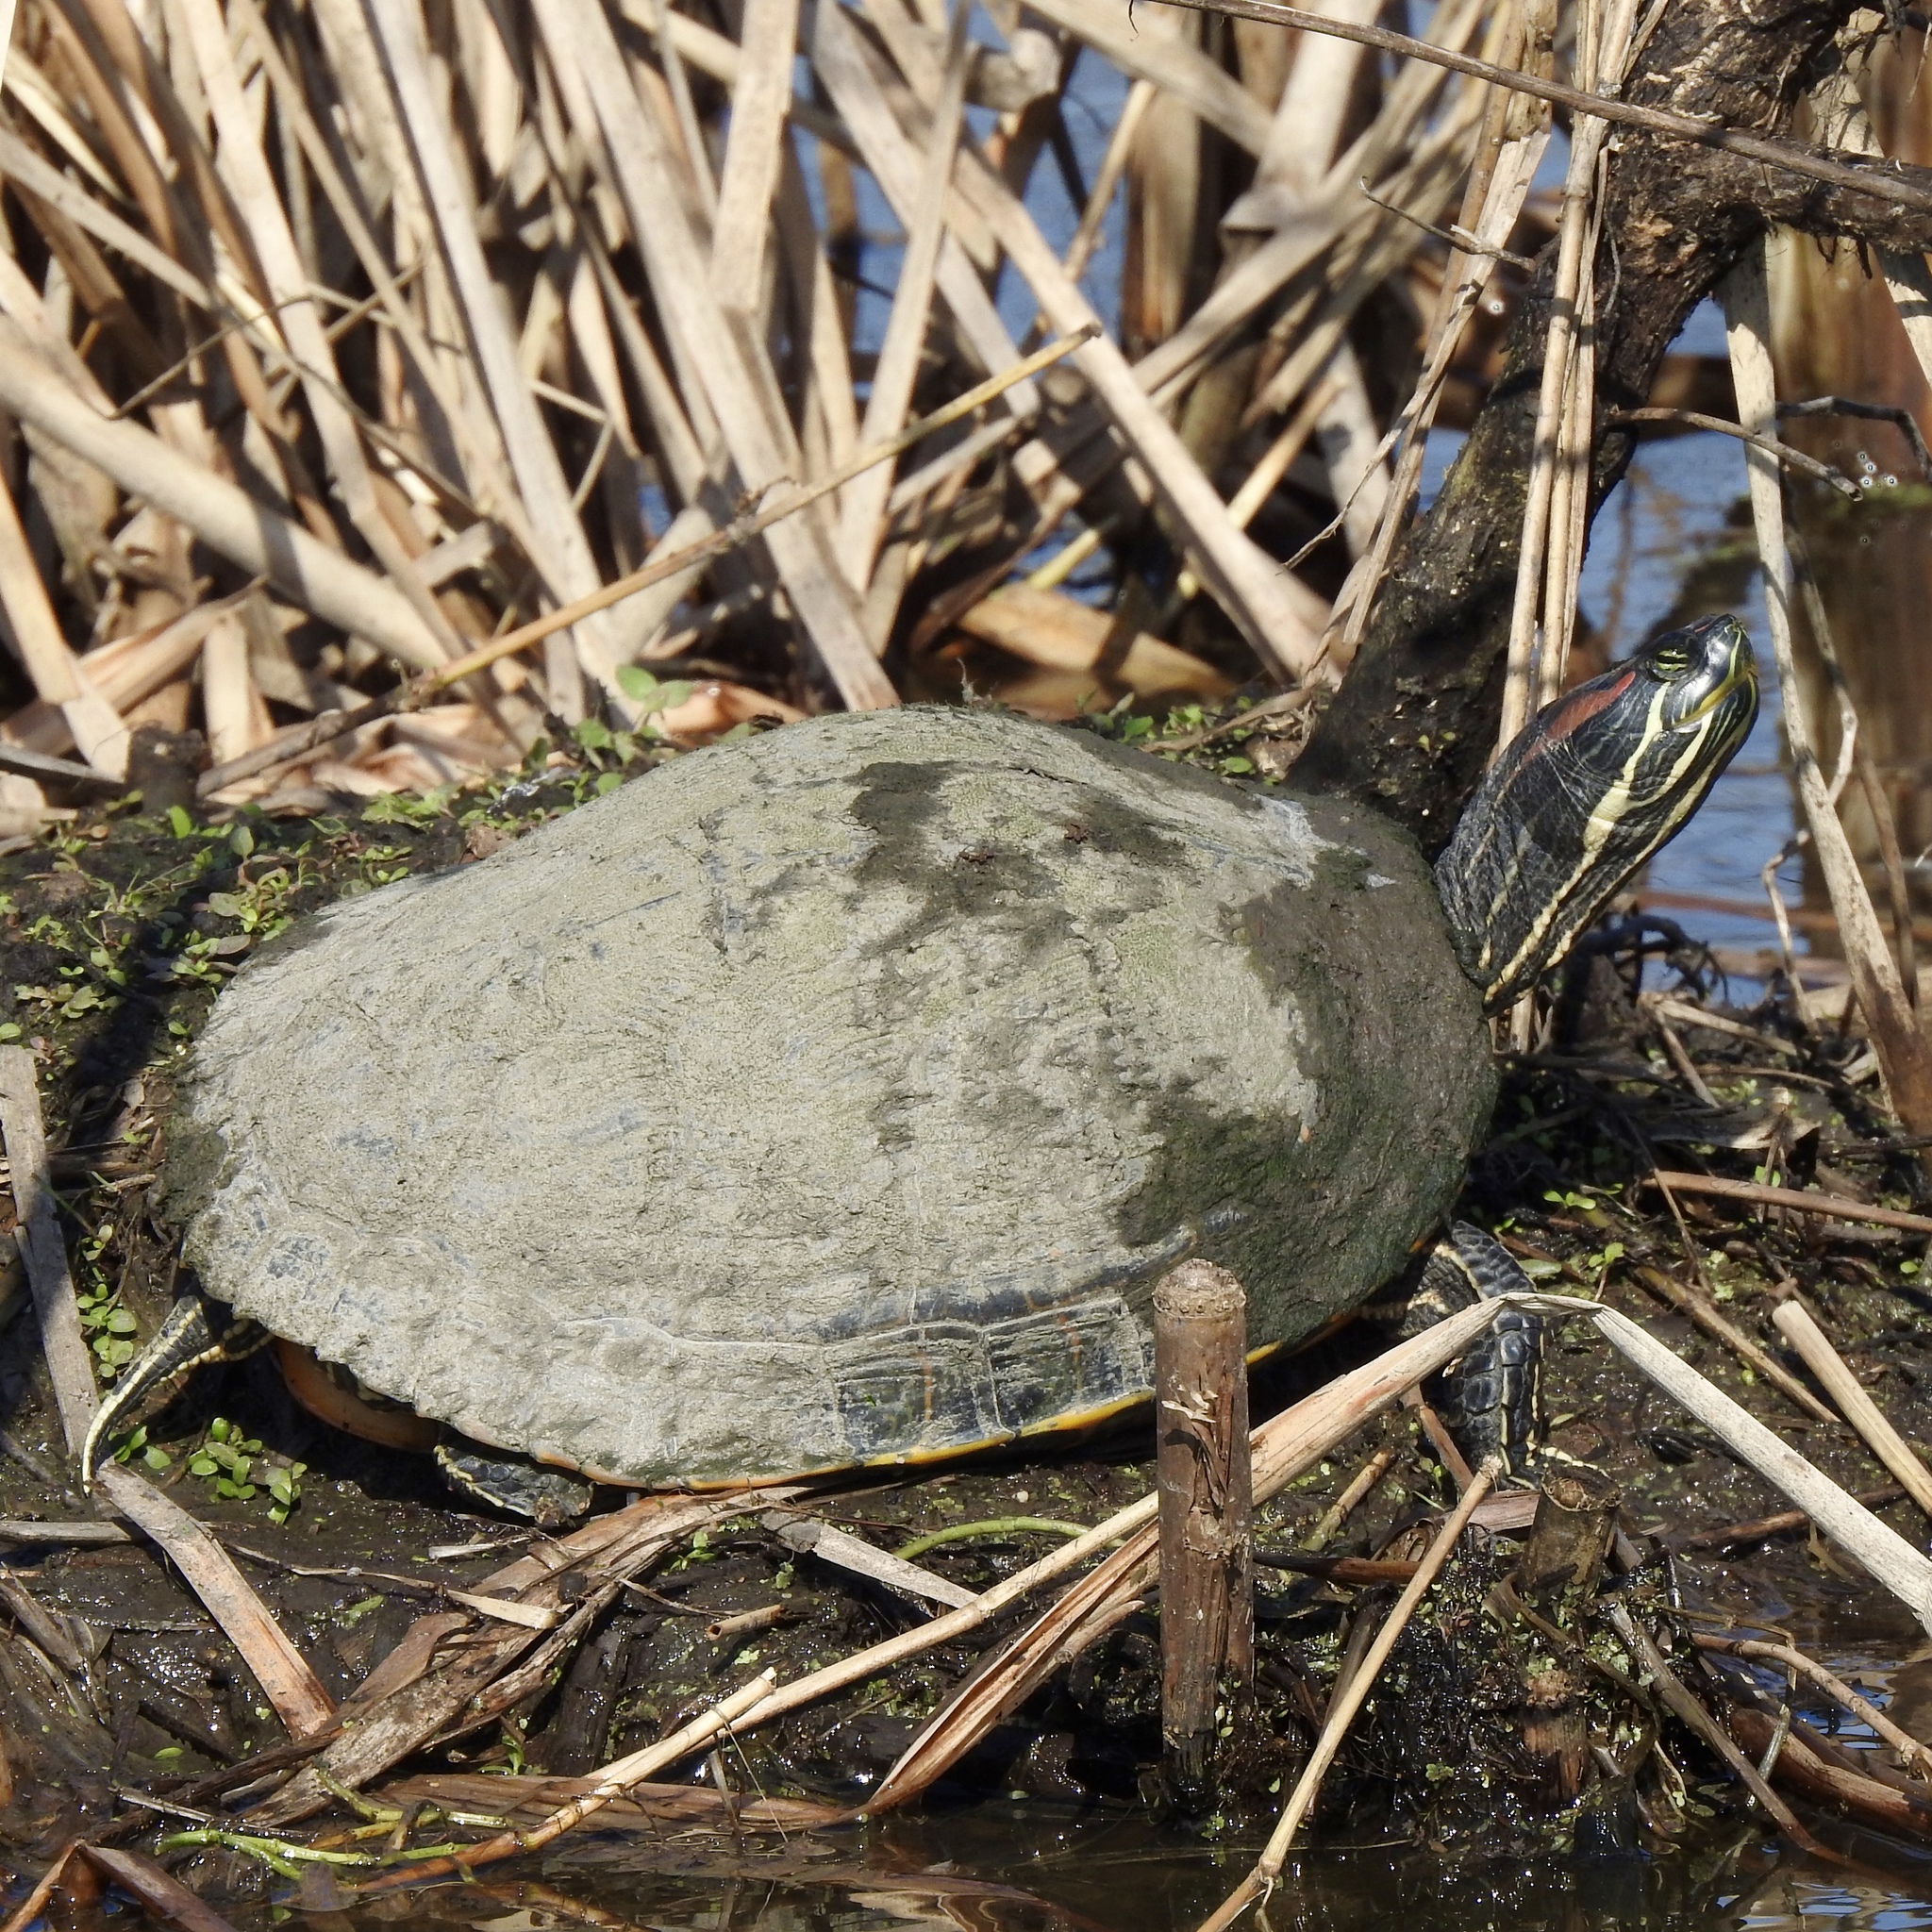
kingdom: Animalia
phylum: Chordata
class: Testudines
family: Emydidae
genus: Trachemys
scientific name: Trachemys scripta
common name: Slider
